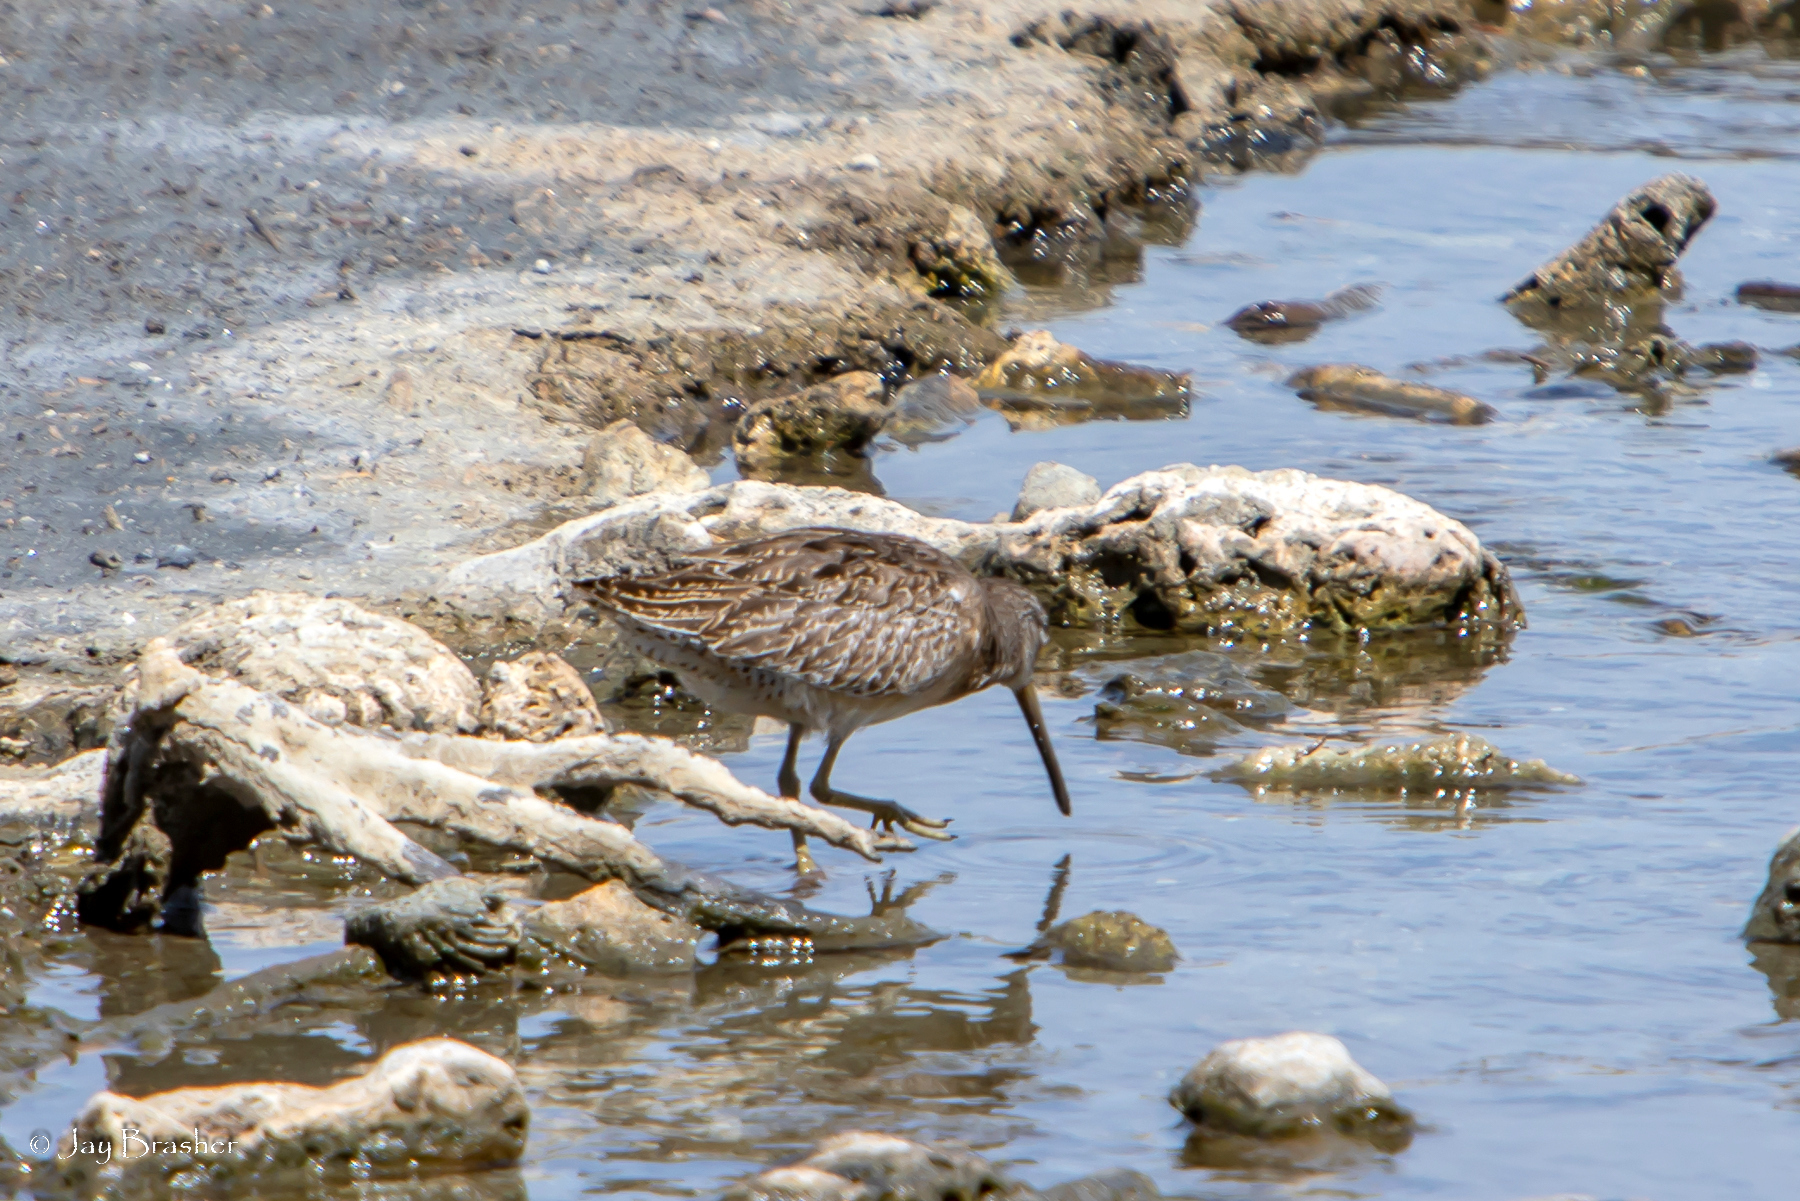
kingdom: Animalia
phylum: Chordata
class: Aves
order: Charadriiformes
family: Scolopacidae
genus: Limnodromus
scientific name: Limnodromus griseus
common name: Short-billed dowitcher
